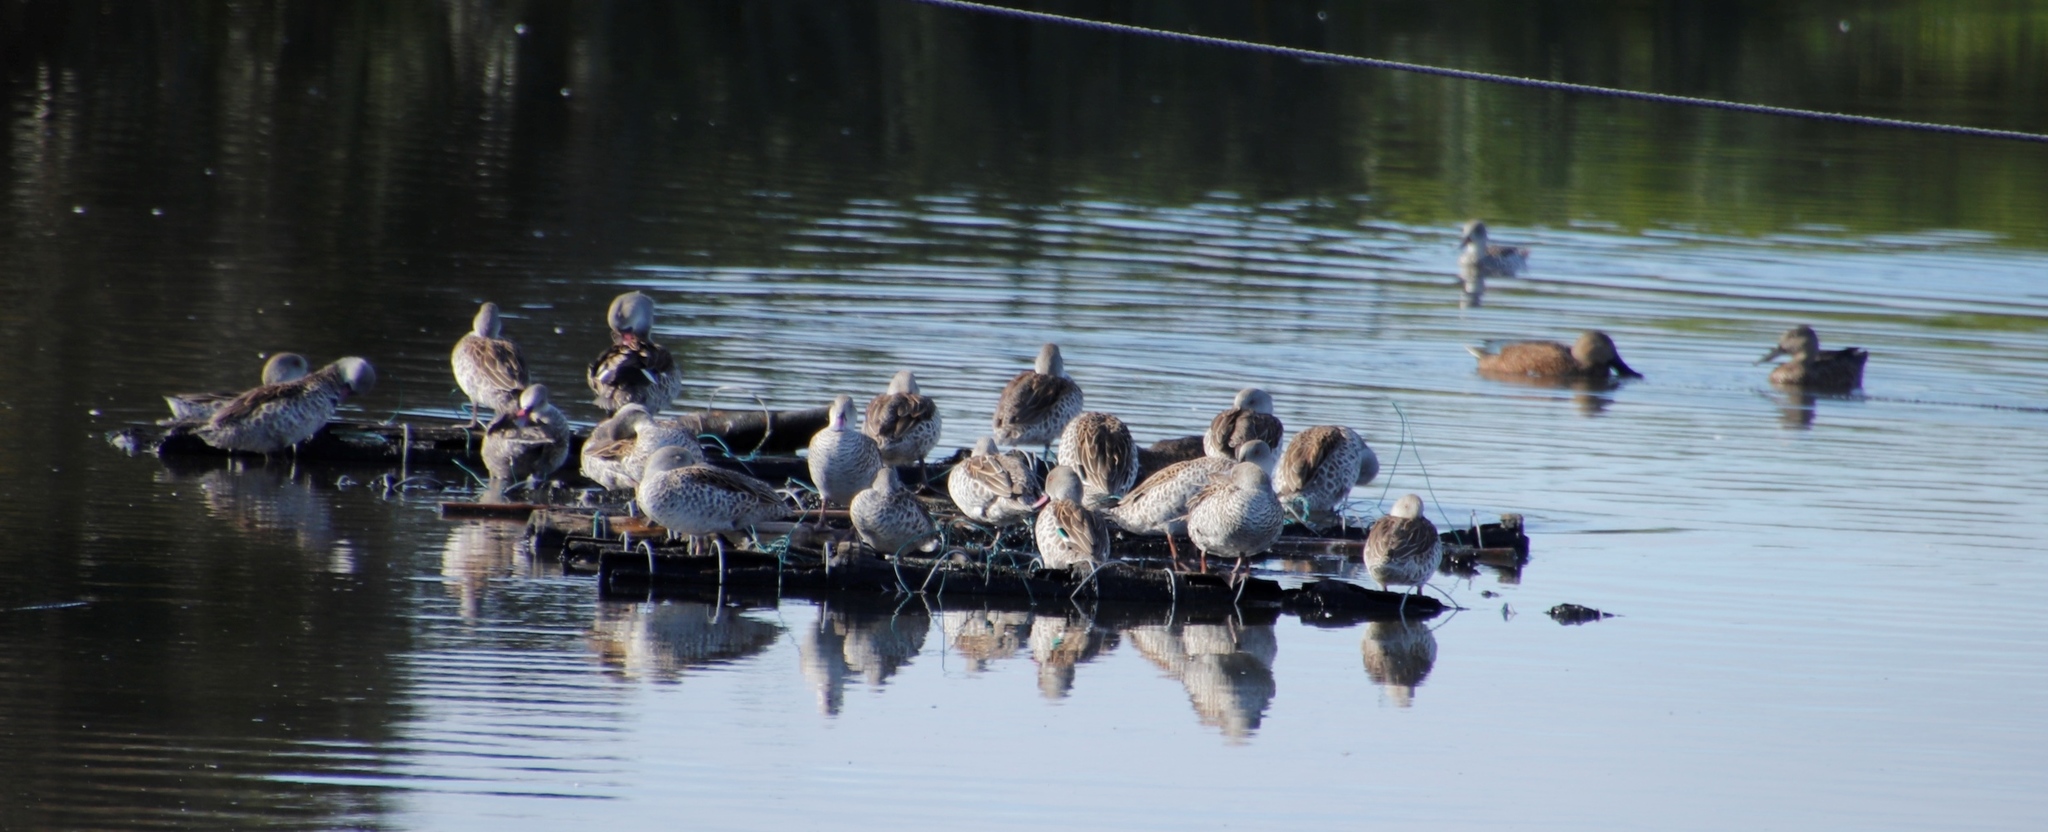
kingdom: Animalia
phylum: Chordata
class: Aves
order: Anseriformes
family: Anatidae
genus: Anas
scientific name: Anas capensis
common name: Cape teal
